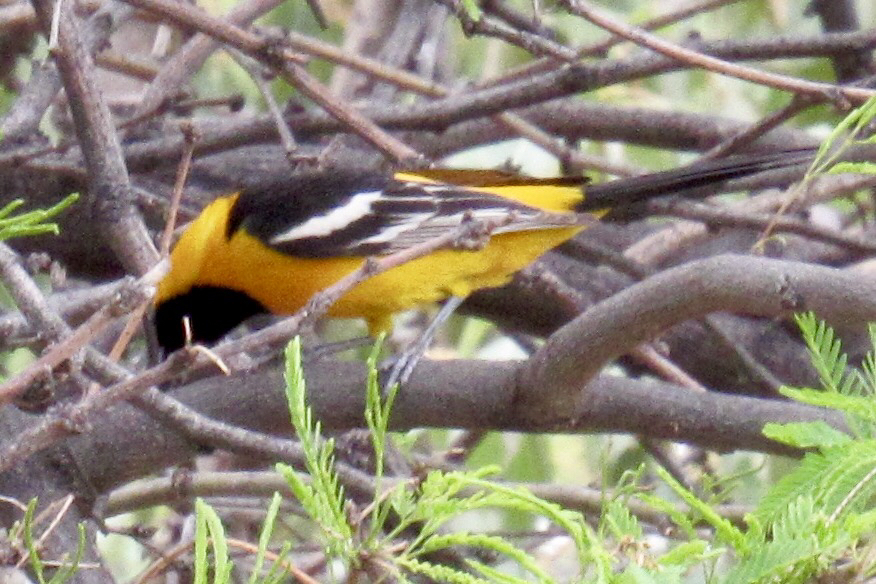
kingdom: Animalia
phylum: Chordata
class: Aves
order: Passeriformes
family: Icteridae
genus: Icterus
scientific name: Icterus cucullatus
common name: Hooded oriole
